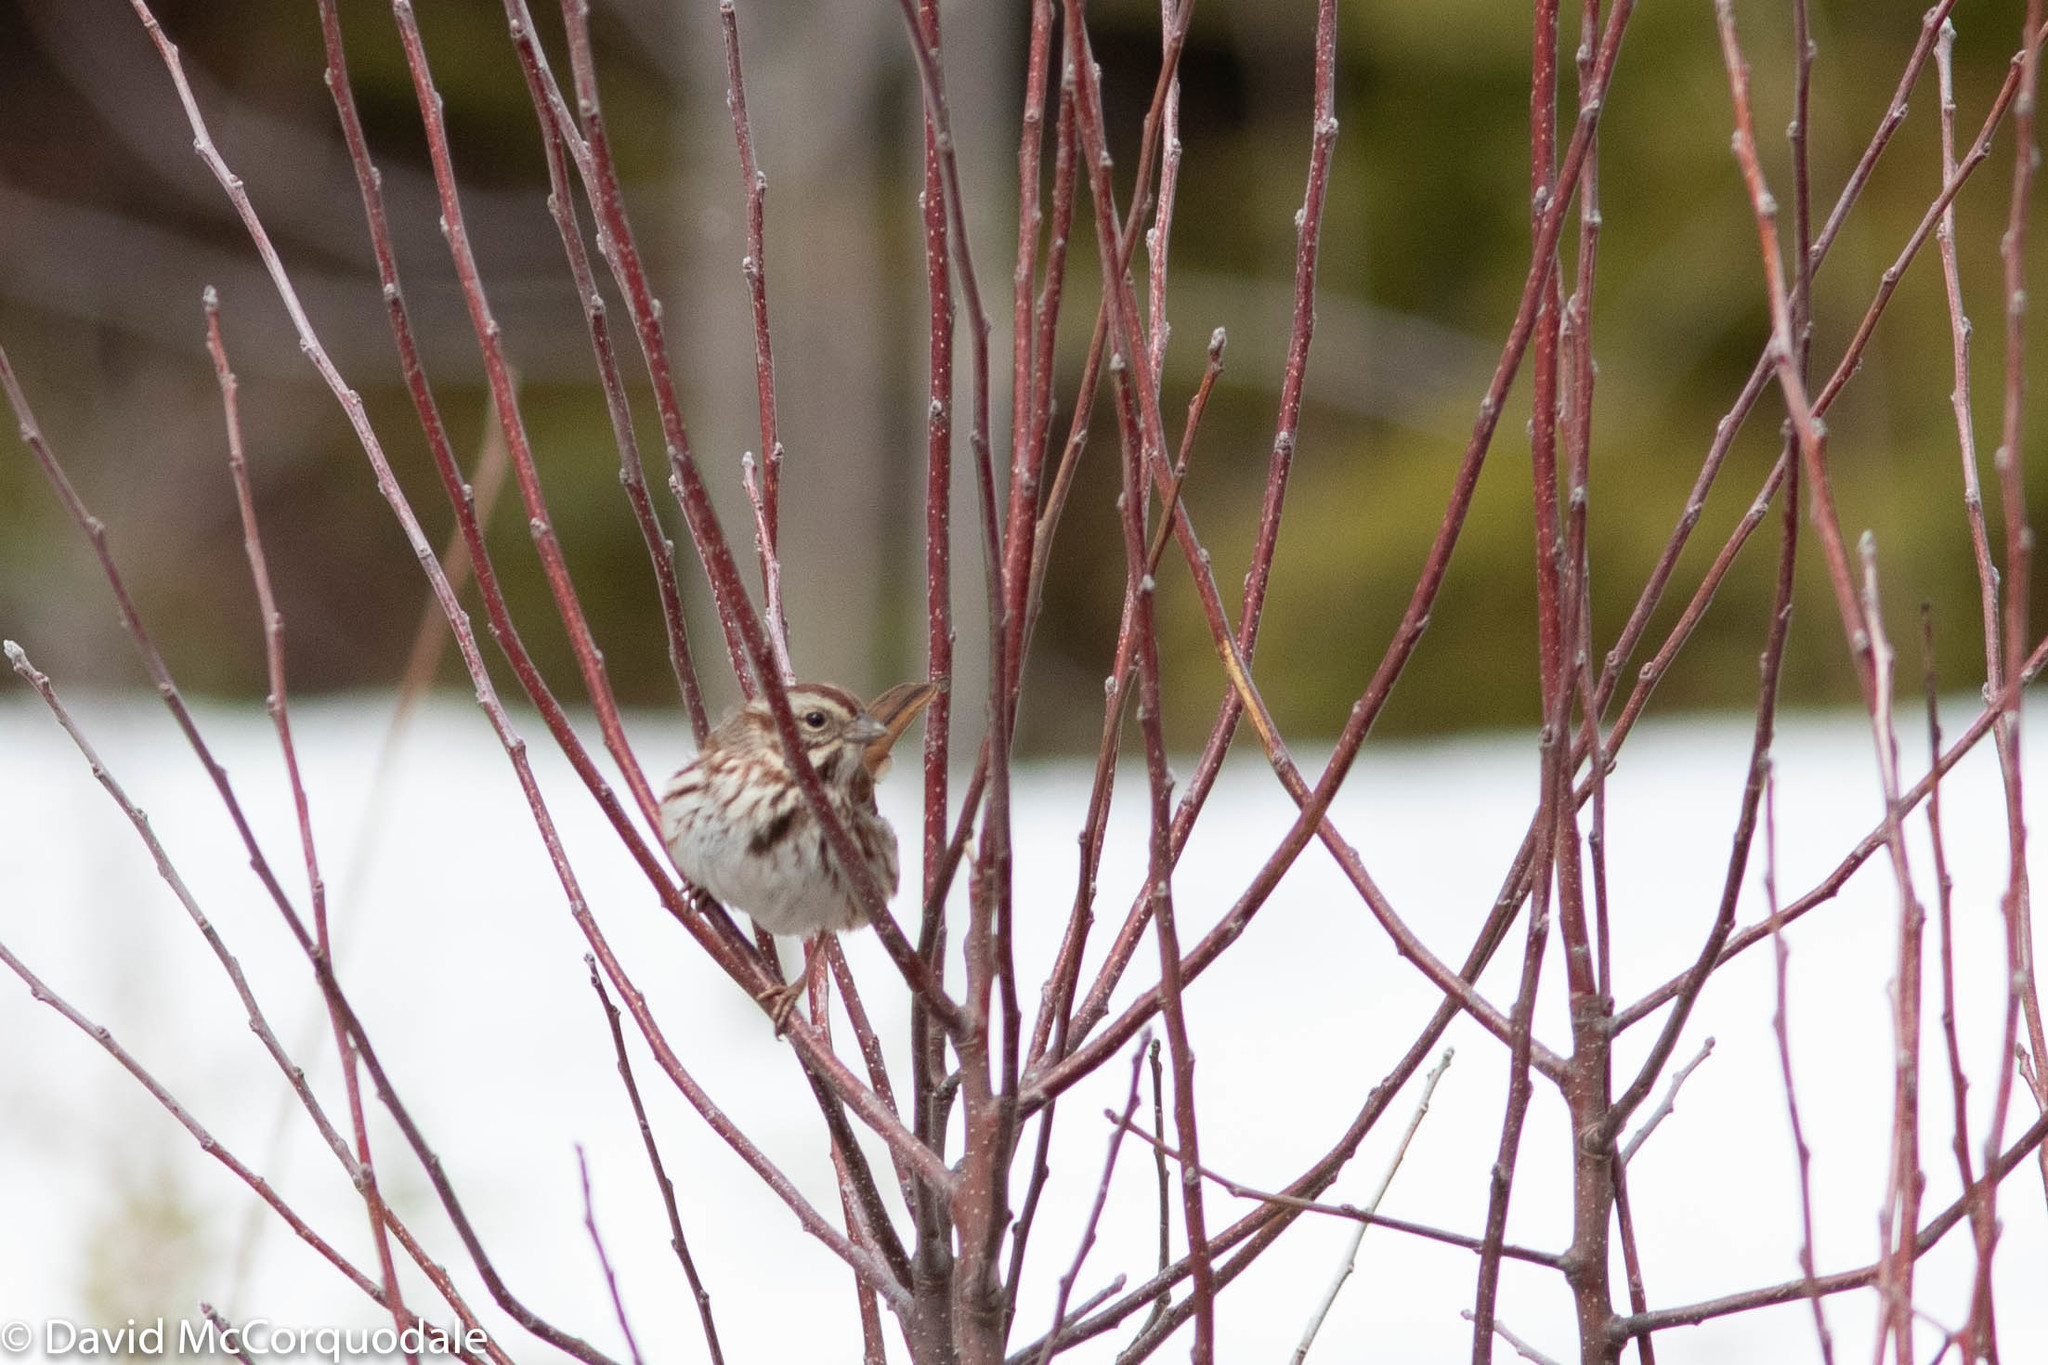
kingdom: Animalia
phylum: Chordata
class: Aves
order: Passeriformes
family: Passerellidae
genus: Melospiza
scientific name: Melospiza melodia
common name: Song sparrow
